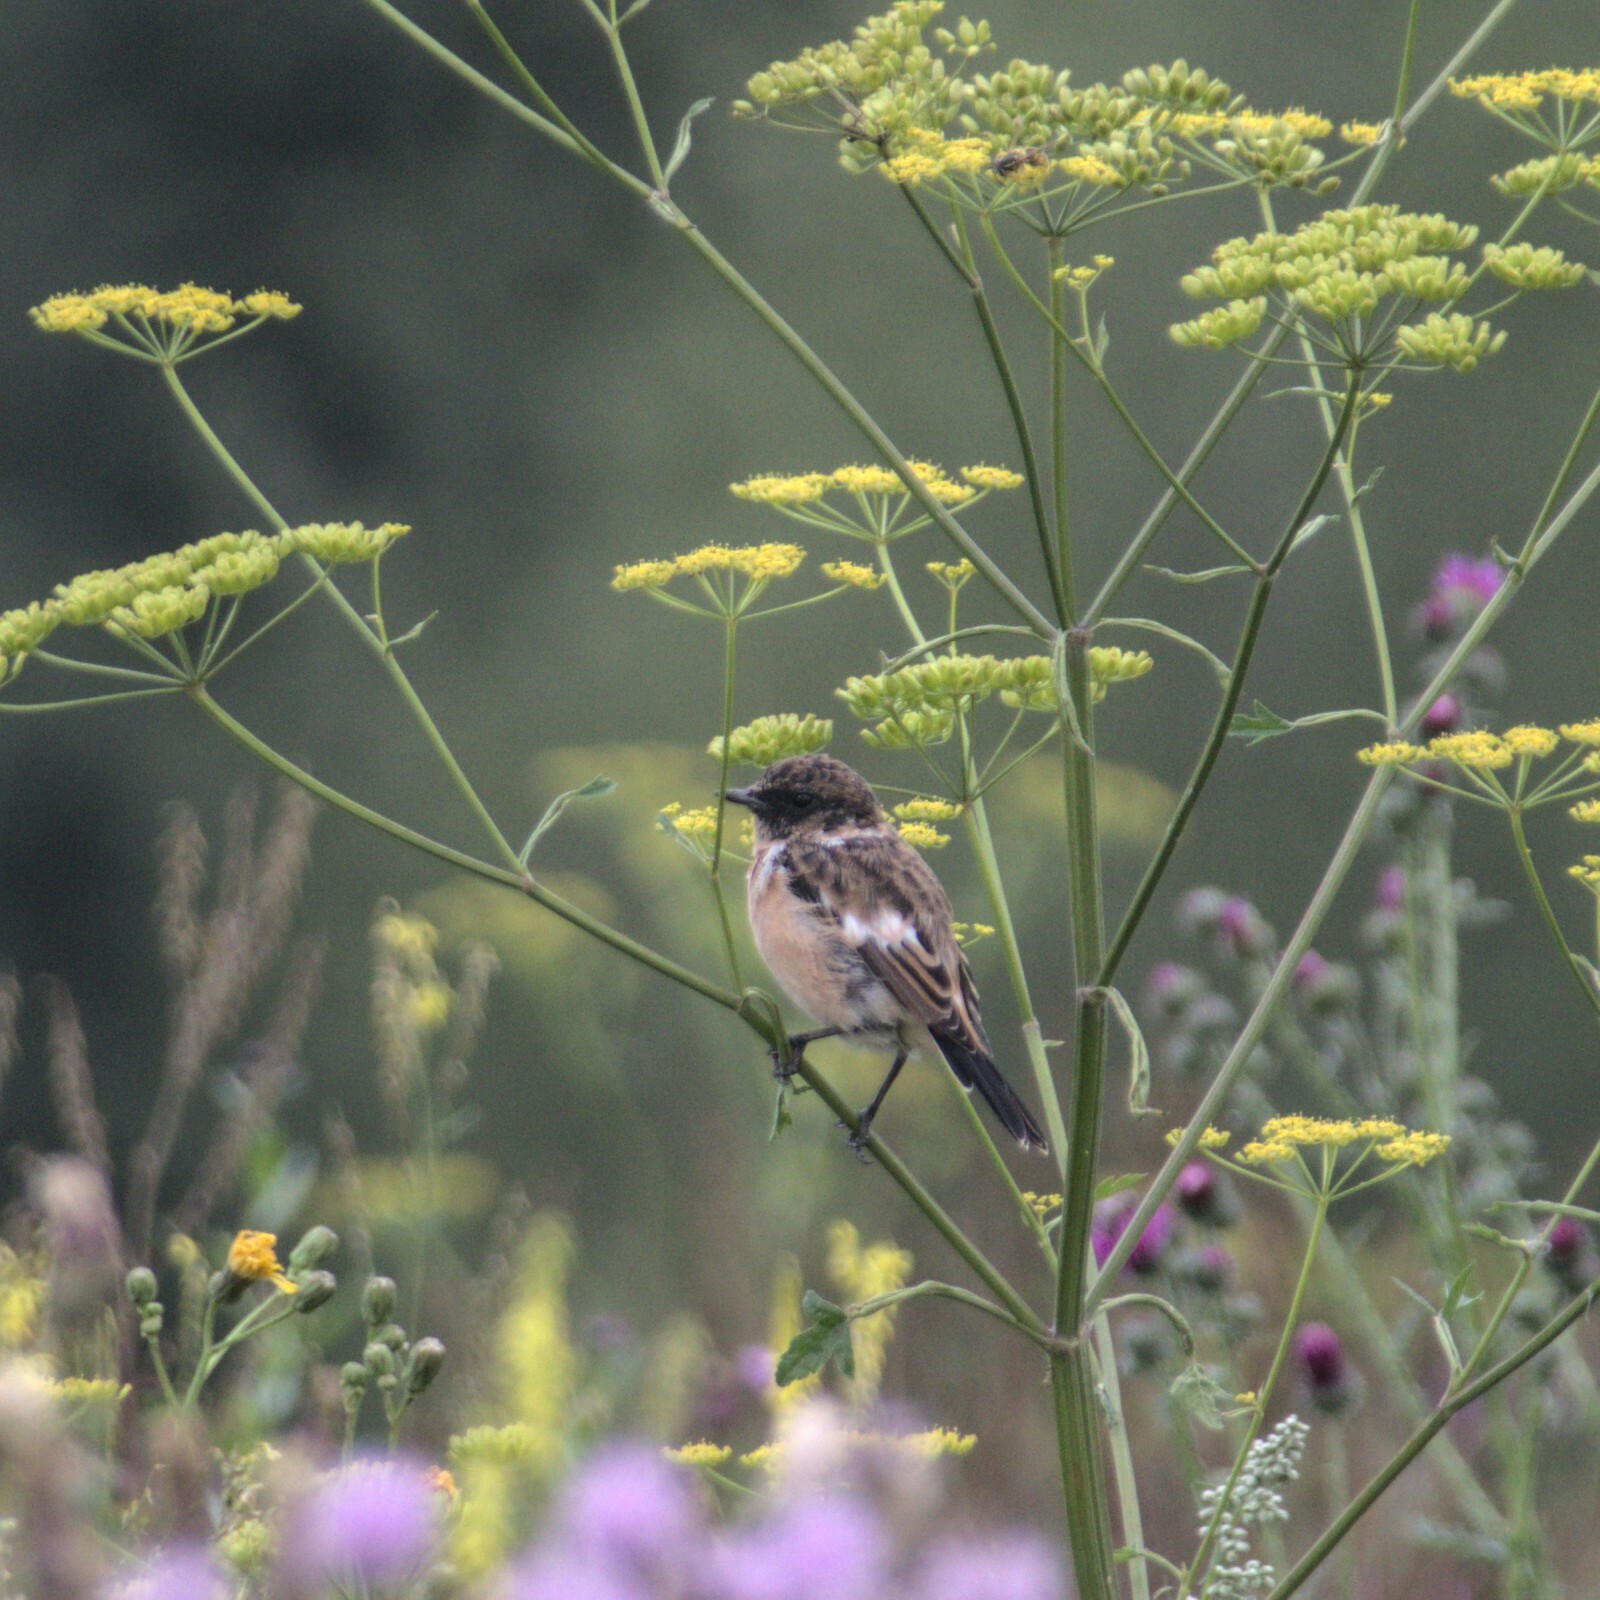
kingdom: Animalia
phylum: Chordata
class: Aves
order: Passeriformes
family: Muscicapidae
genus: Saxicola
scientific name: Saxicola maurus
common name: Siberian stonechat
